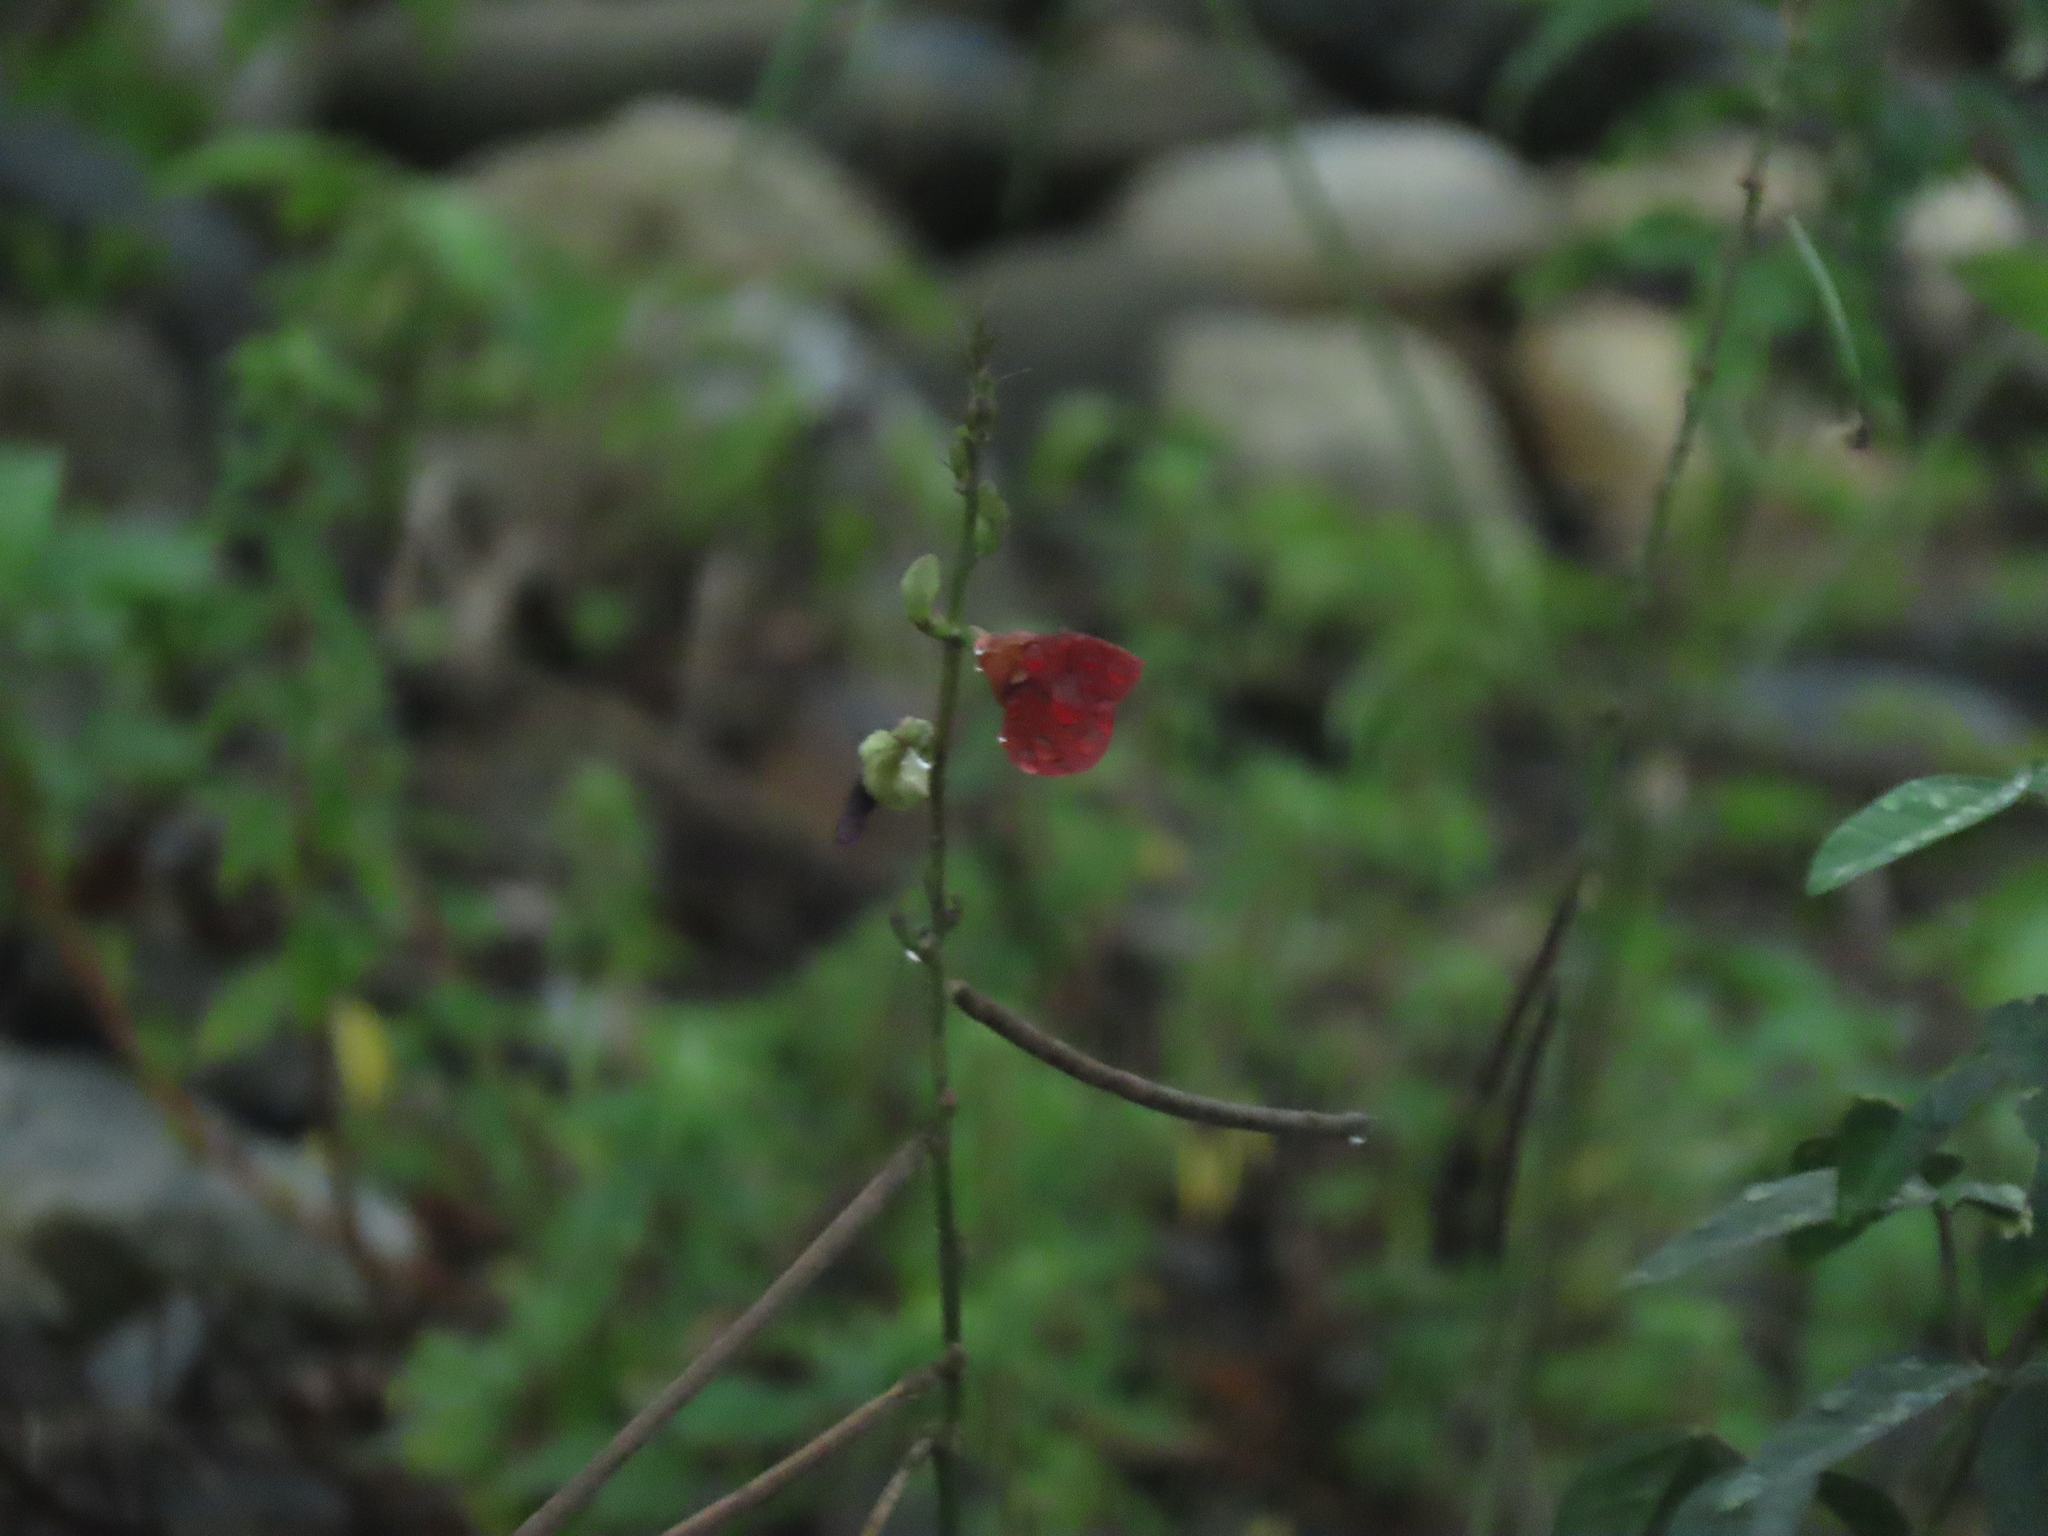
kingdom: Plantae
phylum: Tracheophyta
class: Magnoliopsida
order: Fabales
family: Fabaceae
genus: Macroptilium
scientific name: Macroptilium lathyroides
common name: Wild bushbean
